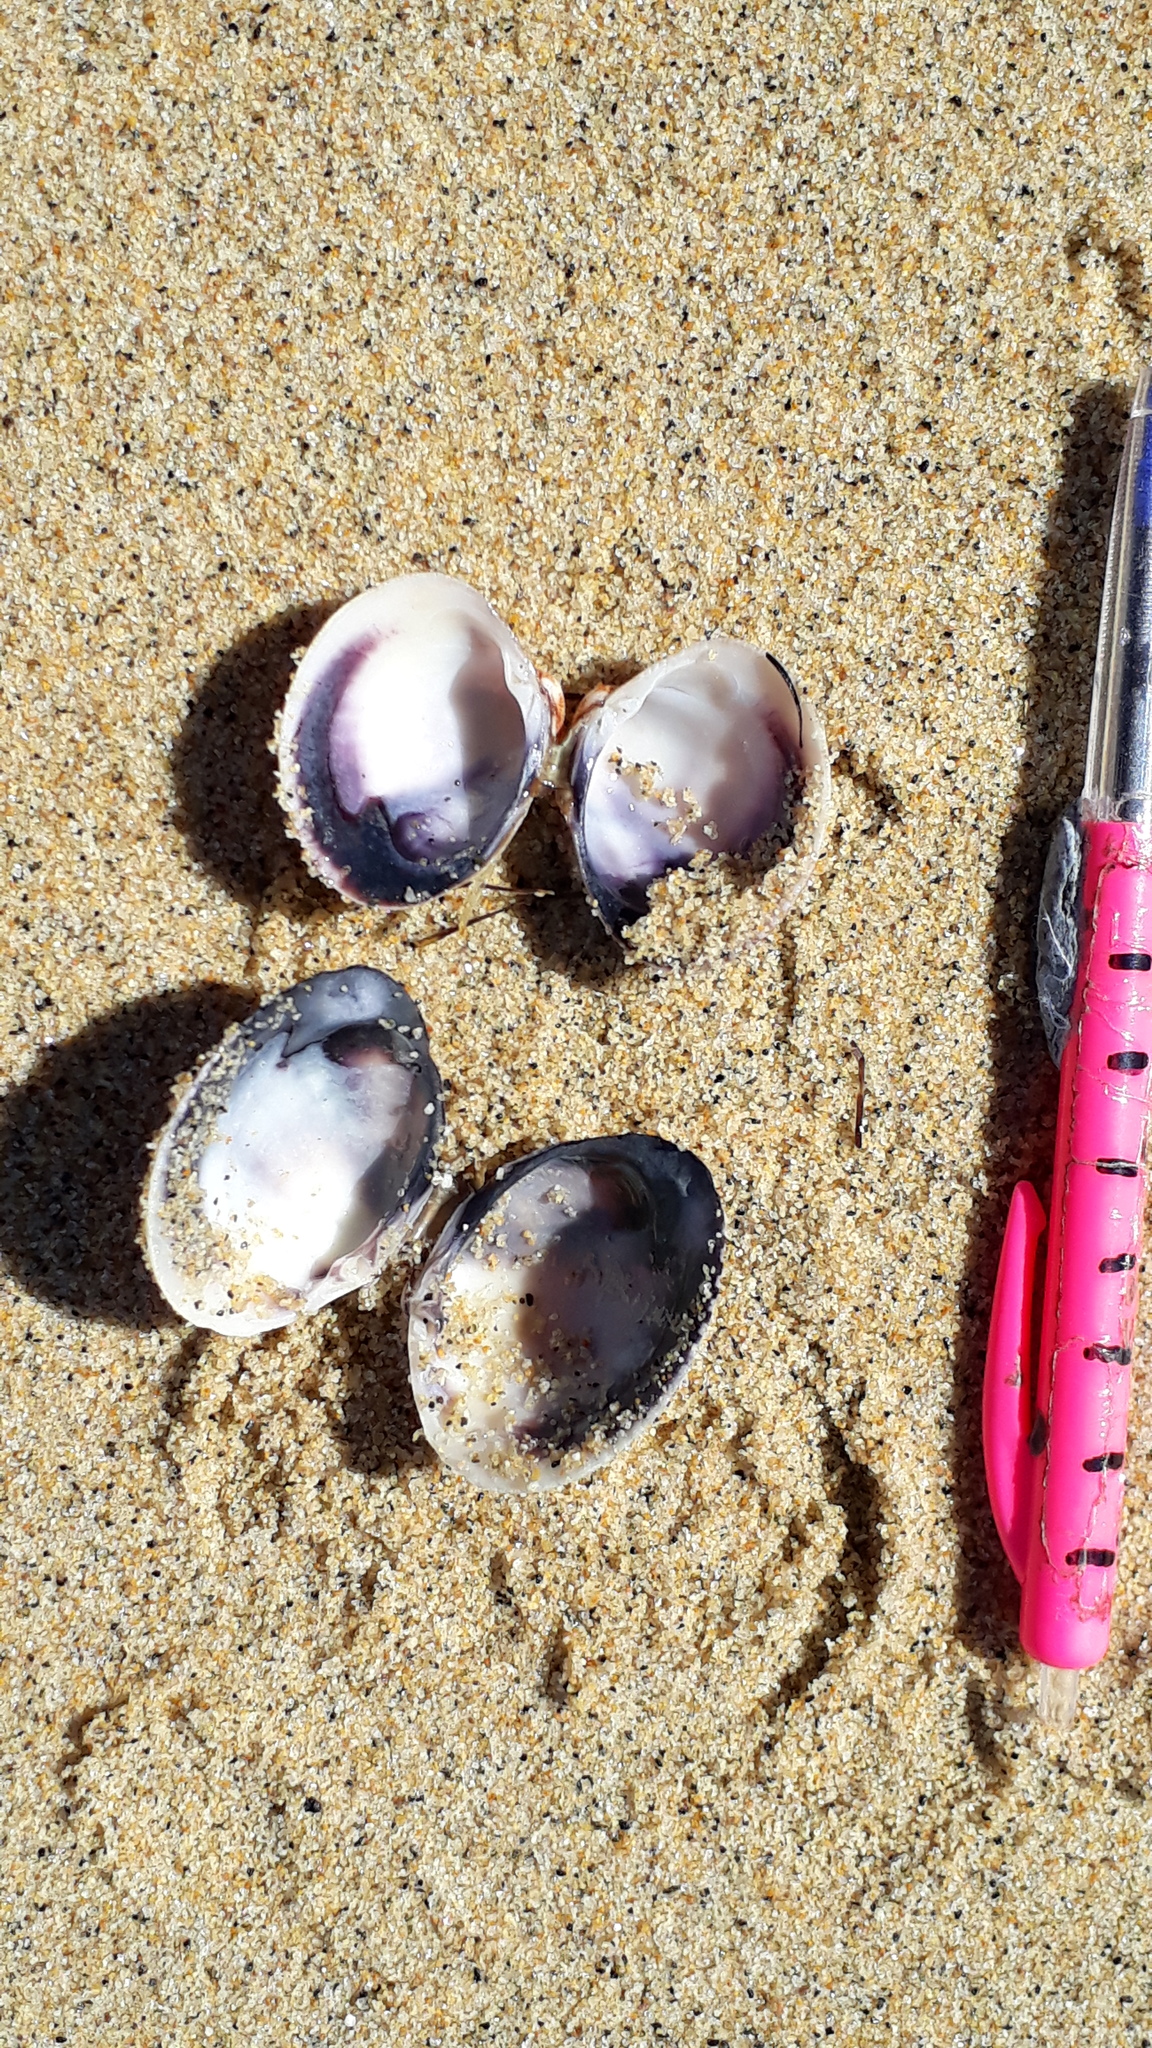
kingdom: Animalia
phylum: Mollusca
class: Bivalvia
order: Venerida
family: Veneridae
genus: Austrovenus
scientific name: Austrovenus stutchburyi
